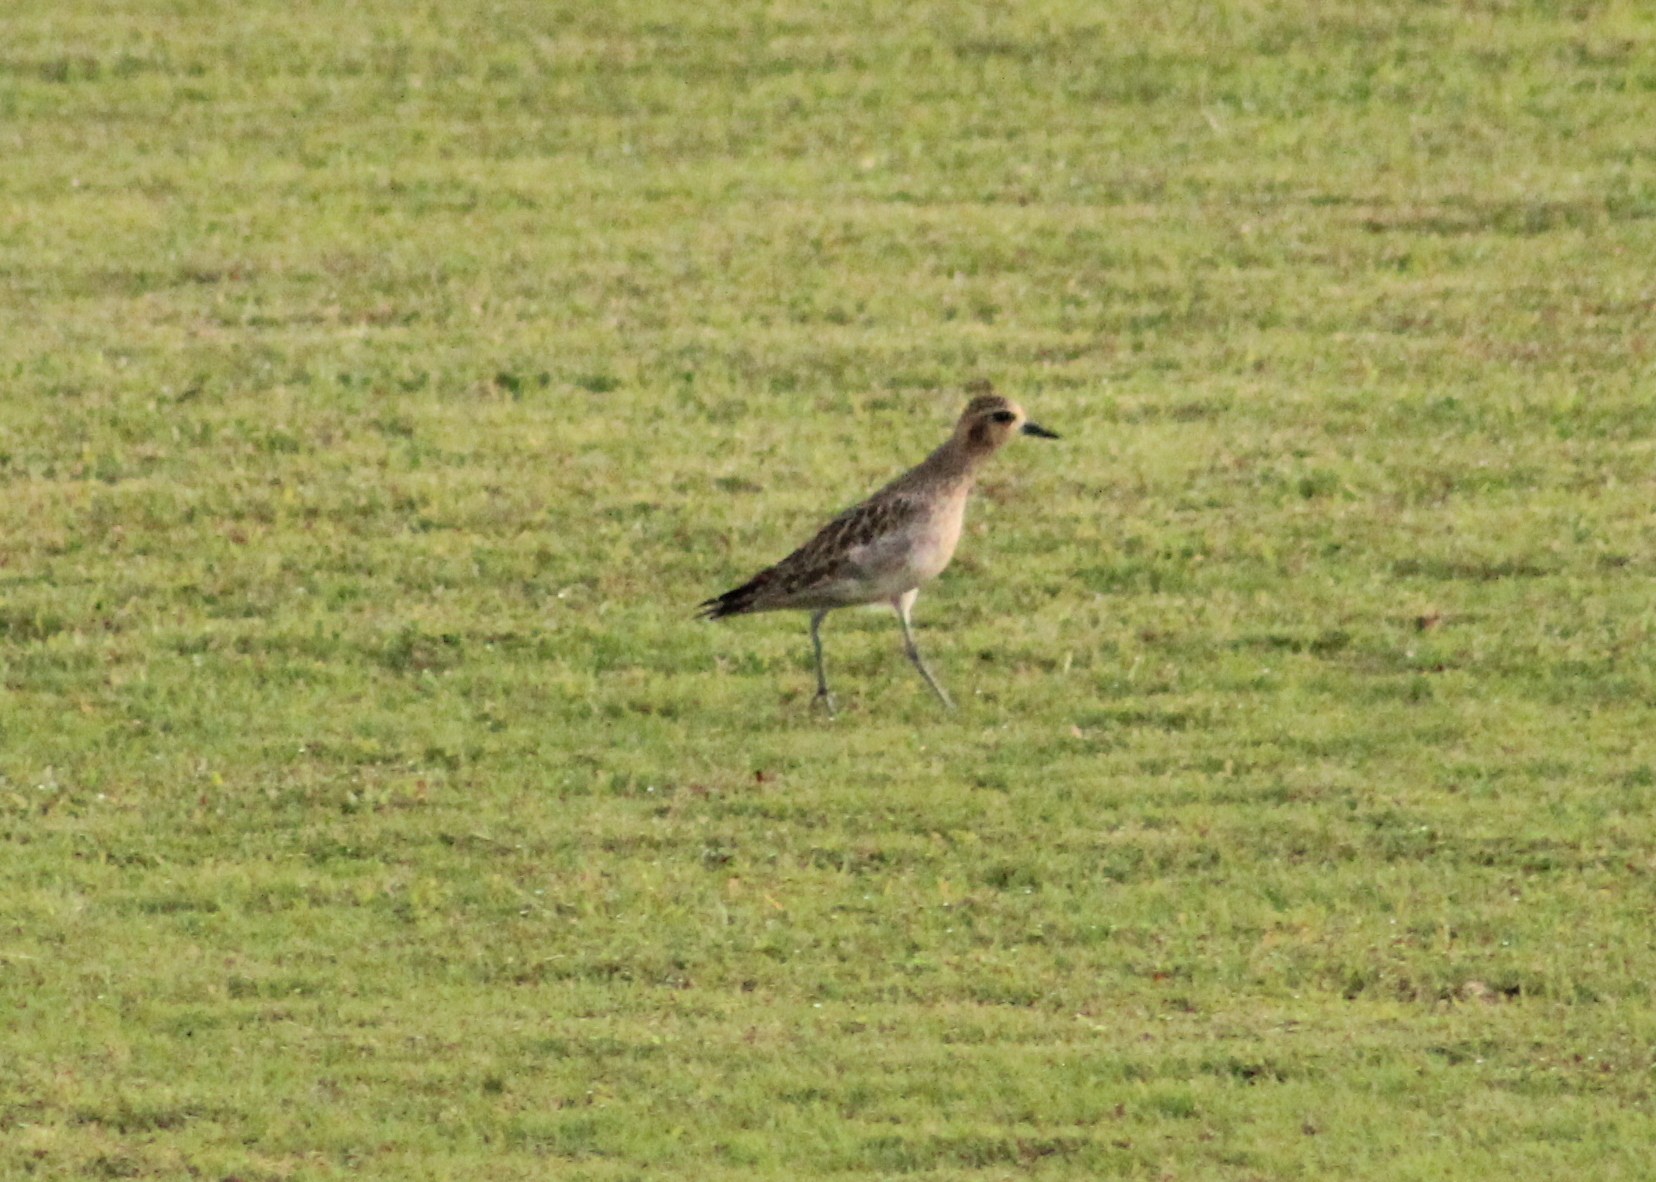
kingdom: Animalia
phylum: Chordata
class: Aves
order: Charadriiformes
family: Charadriidae
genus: Pluvialis
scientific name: Pluvialis fulva
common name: Pacific golden plover
